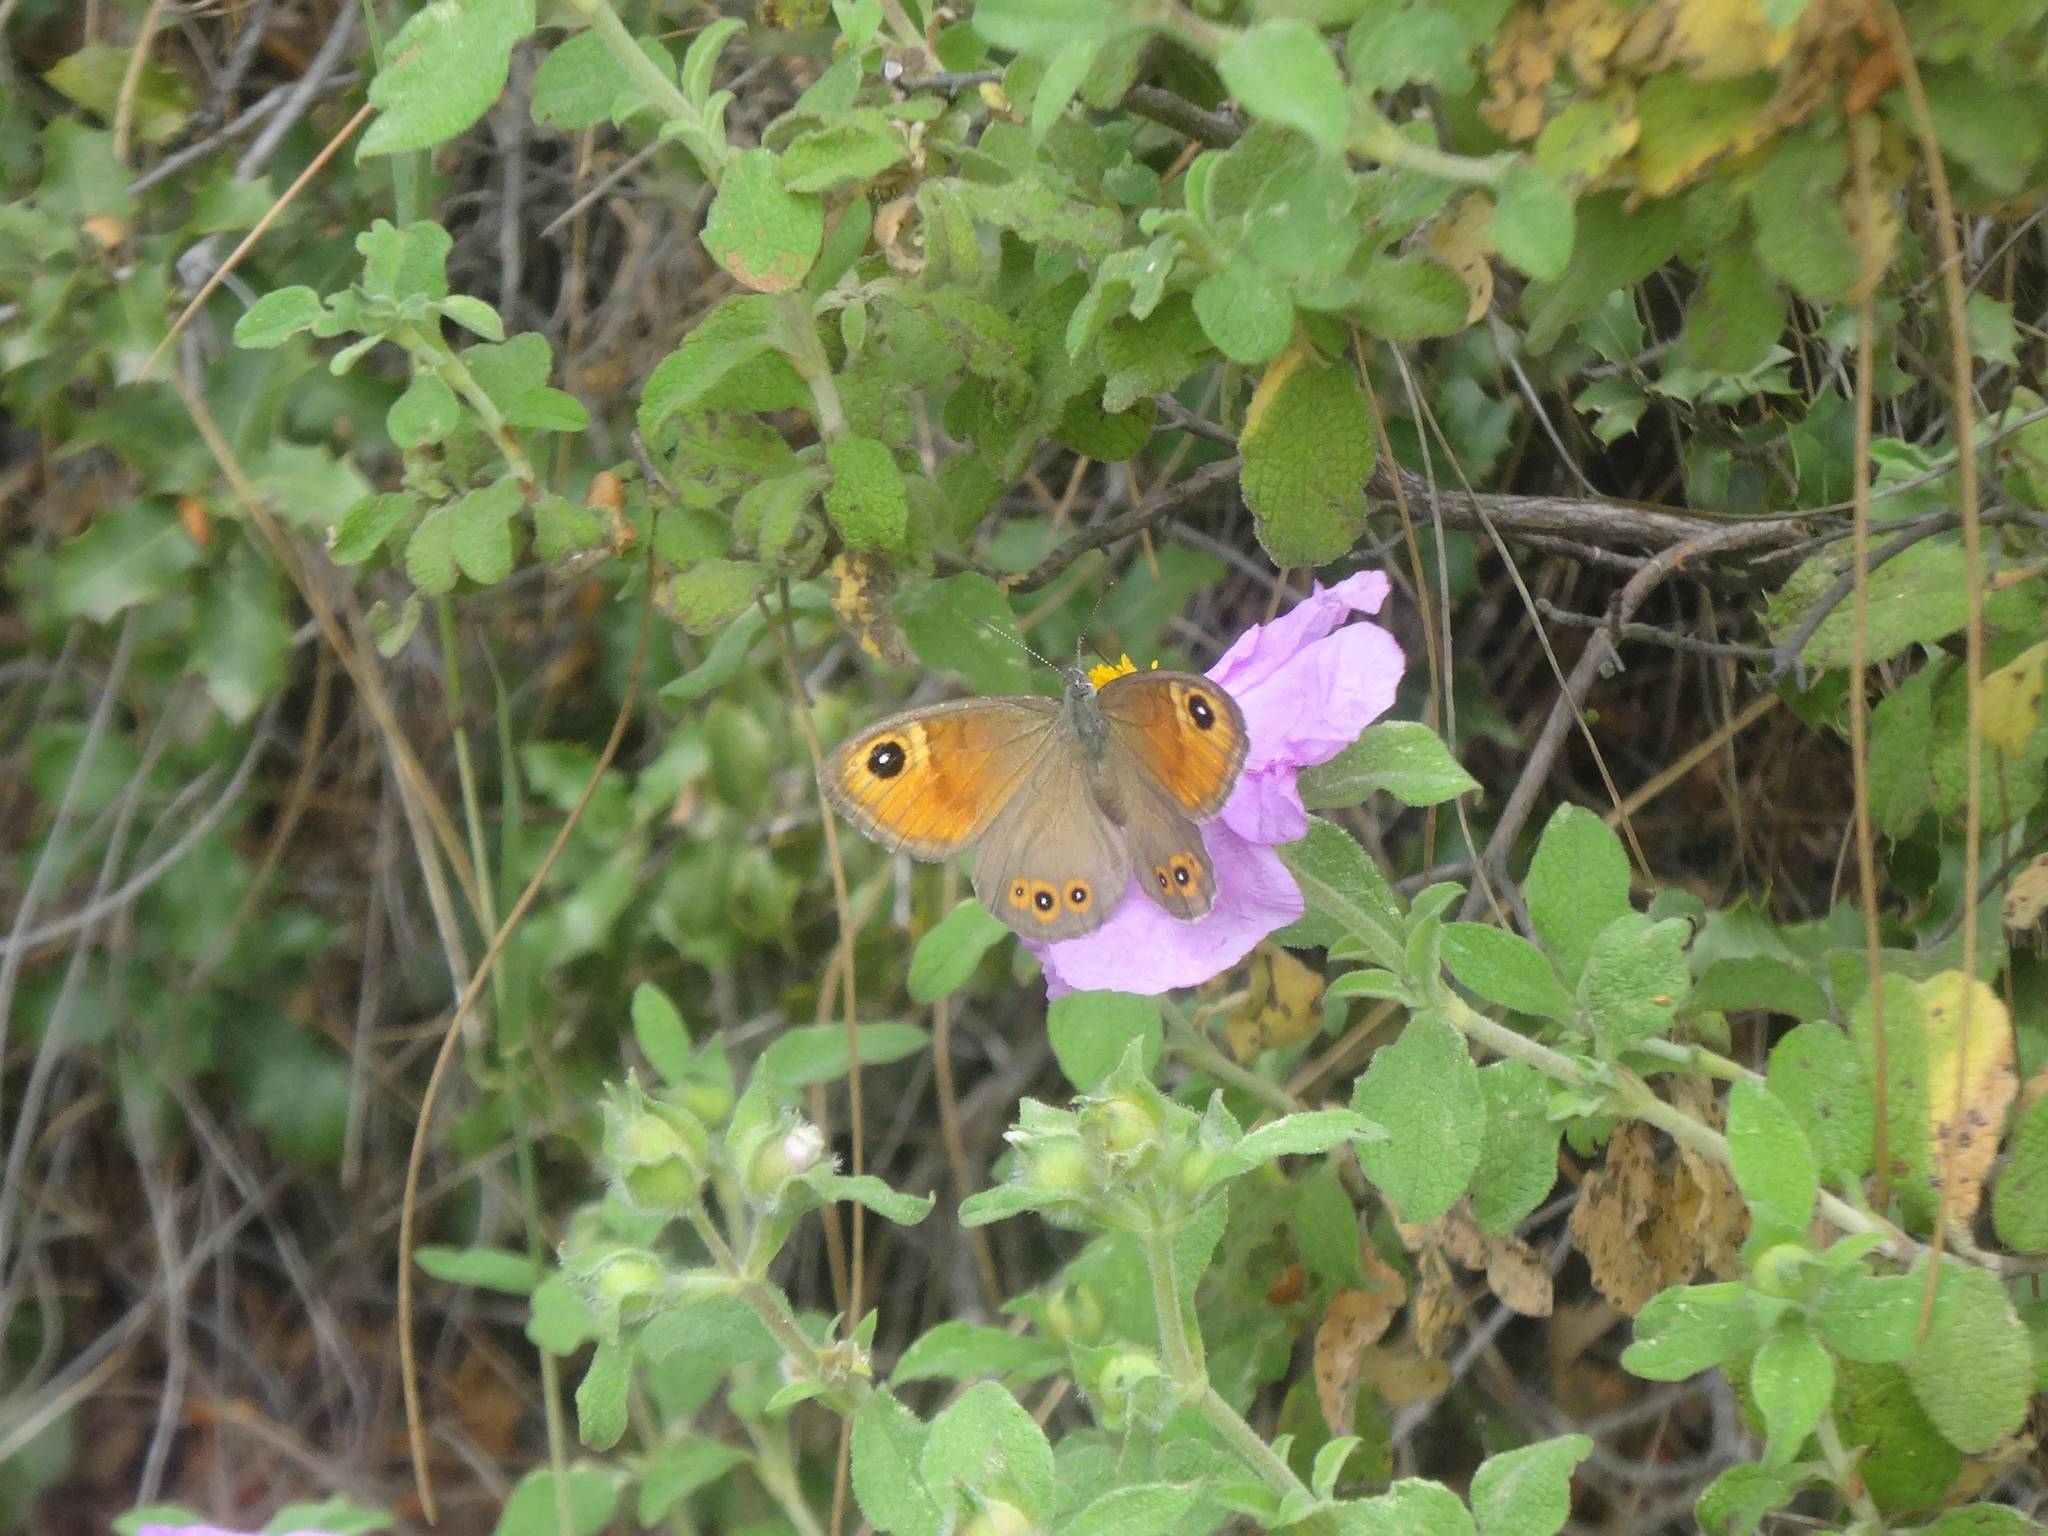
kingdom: Animalia
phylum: Arthropoda
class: Insecta
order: Lepidoptera
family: Nymphalidae
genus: Pararge
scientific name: Pararge Lasiommata maera
